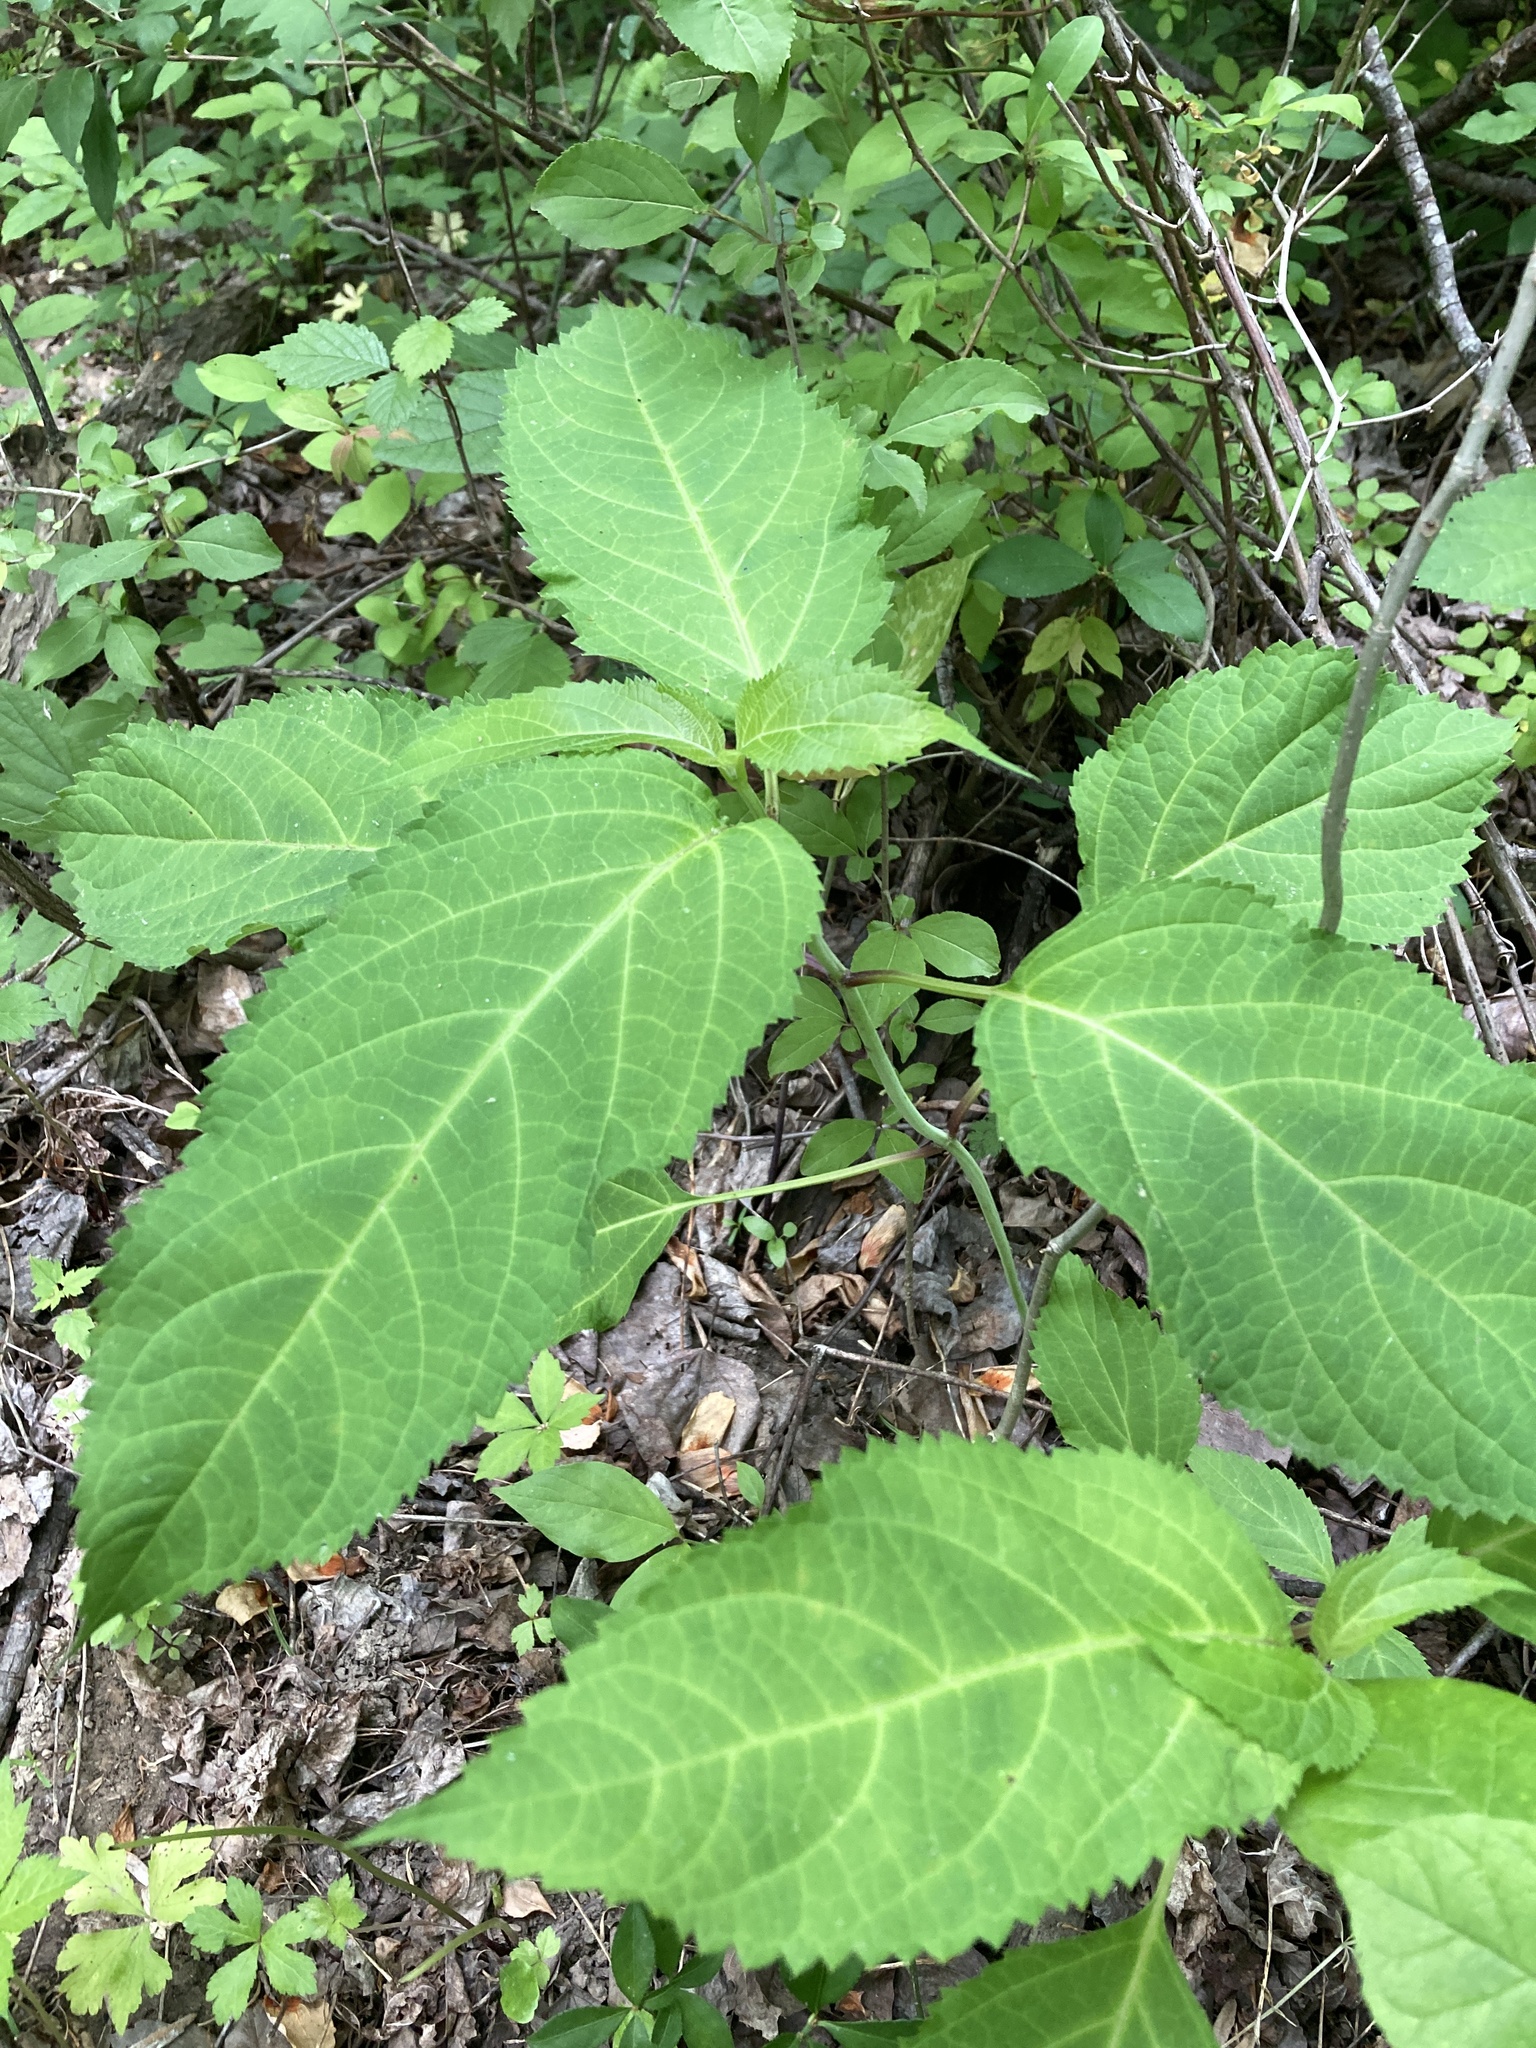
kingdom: Plantae
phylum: Tracheophyta
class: Magnoliopsida
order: Lamiales
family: Lamiaceae
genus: Collinsonia
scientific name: Collinsonia canadensis
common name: Northern horsebalm
